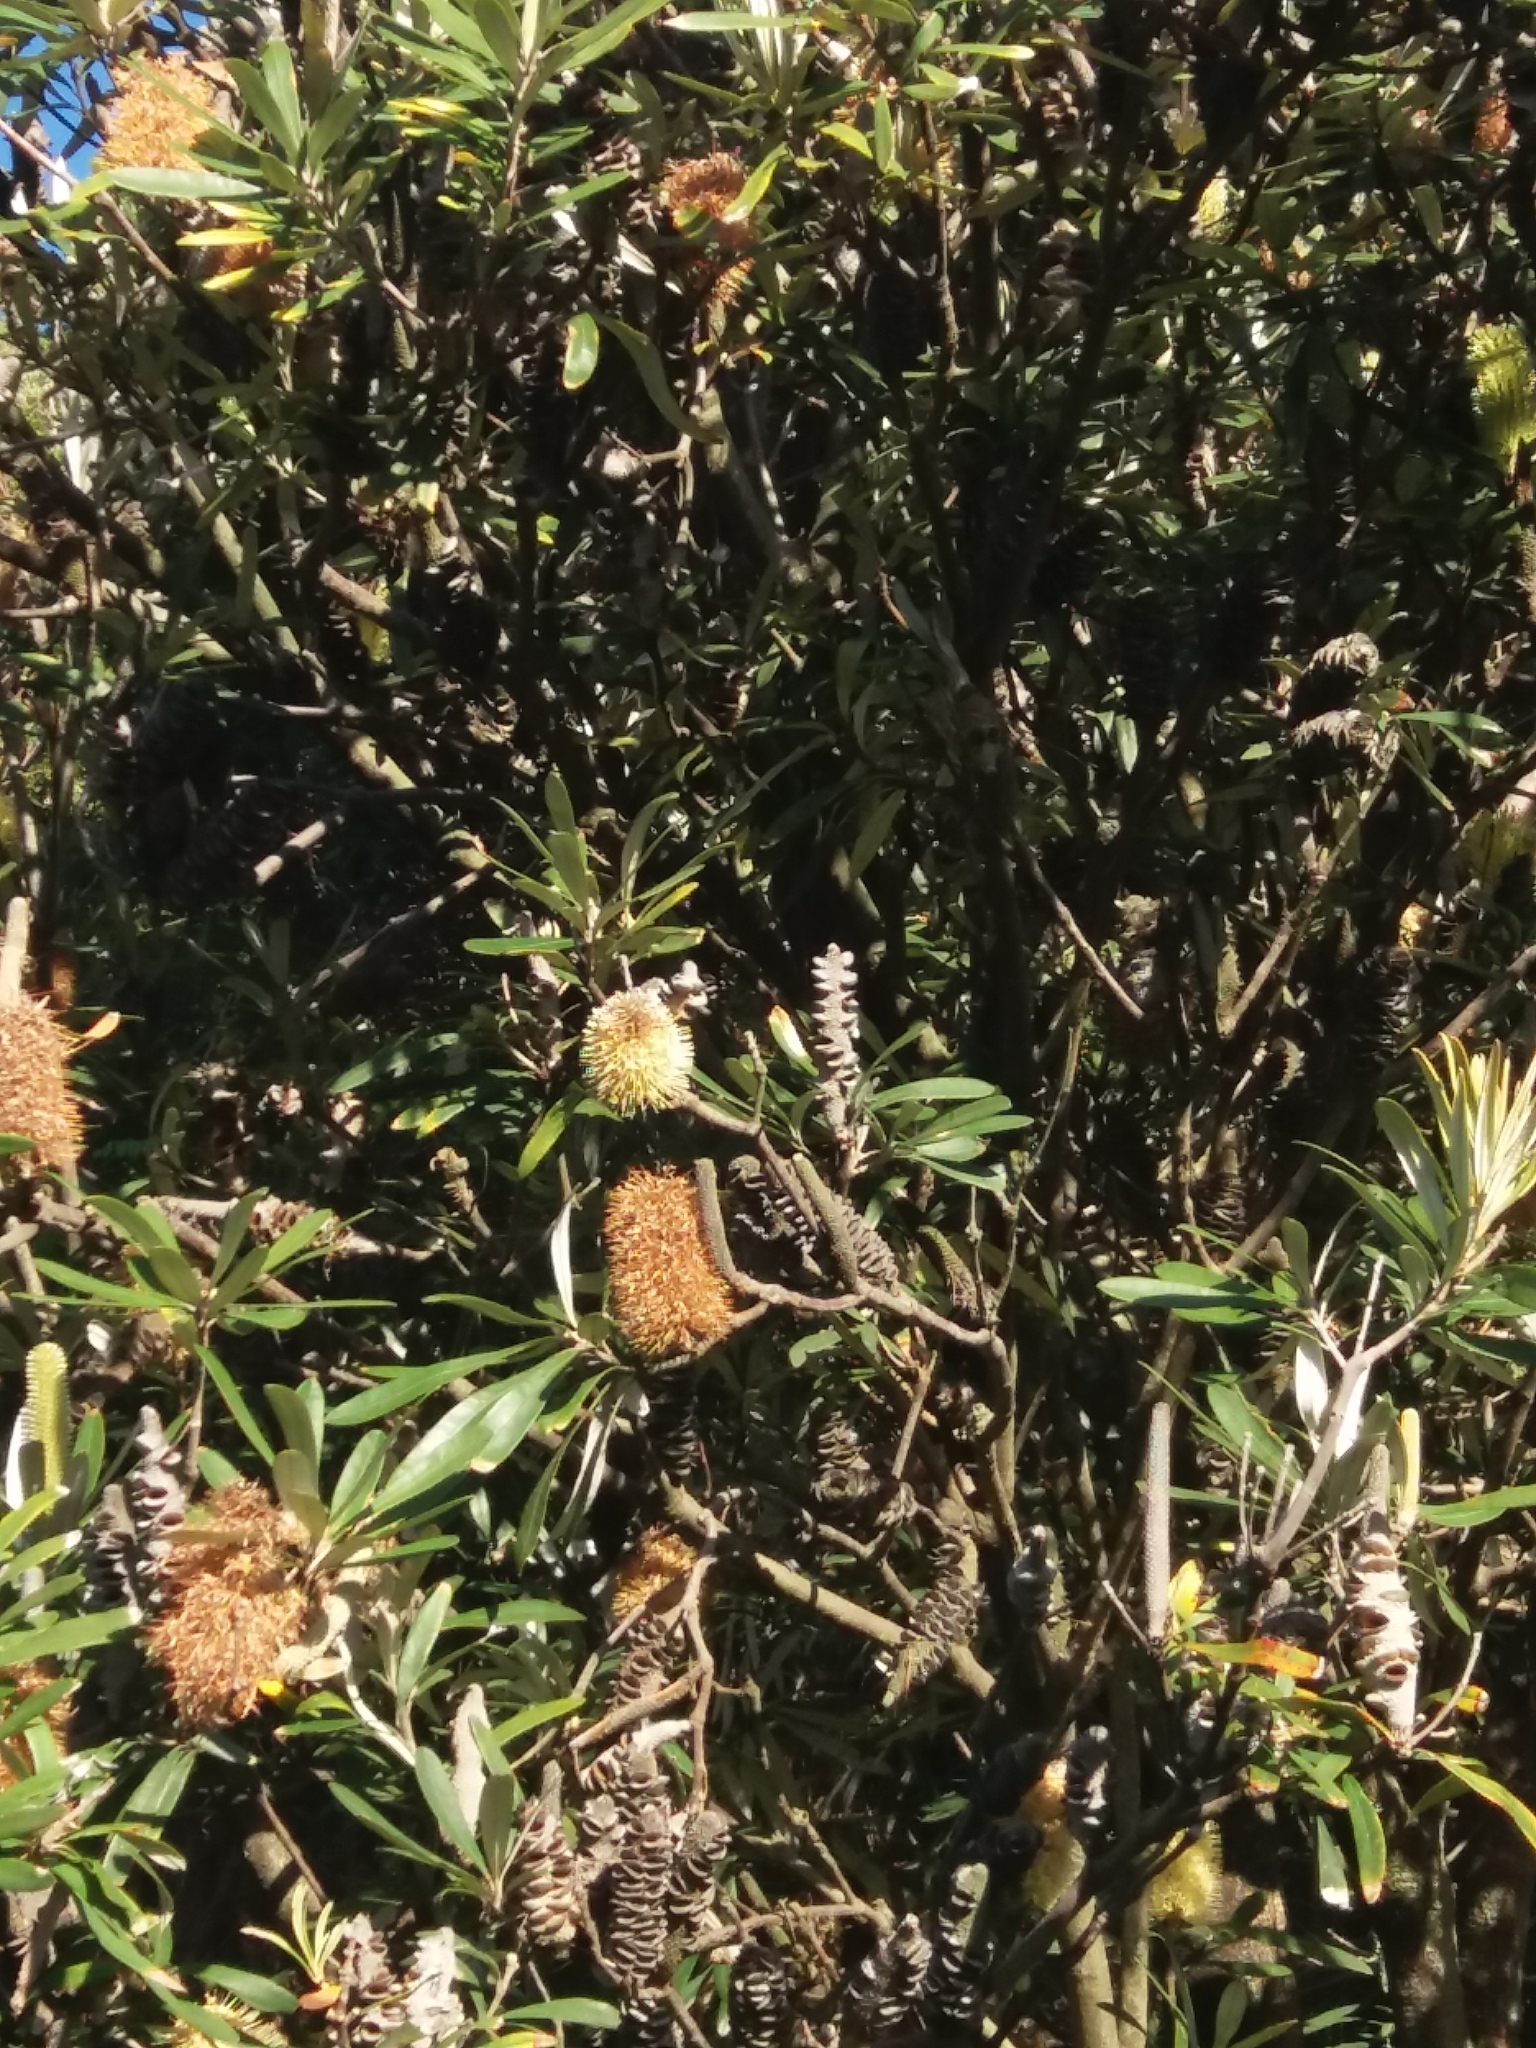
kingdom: Plantae
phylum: Tracheophyta
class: Magnoliopsida
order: Proteales
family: Proteaceae
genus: Banksia
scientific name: Banksia integrifolia
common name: White-honeysuckle
